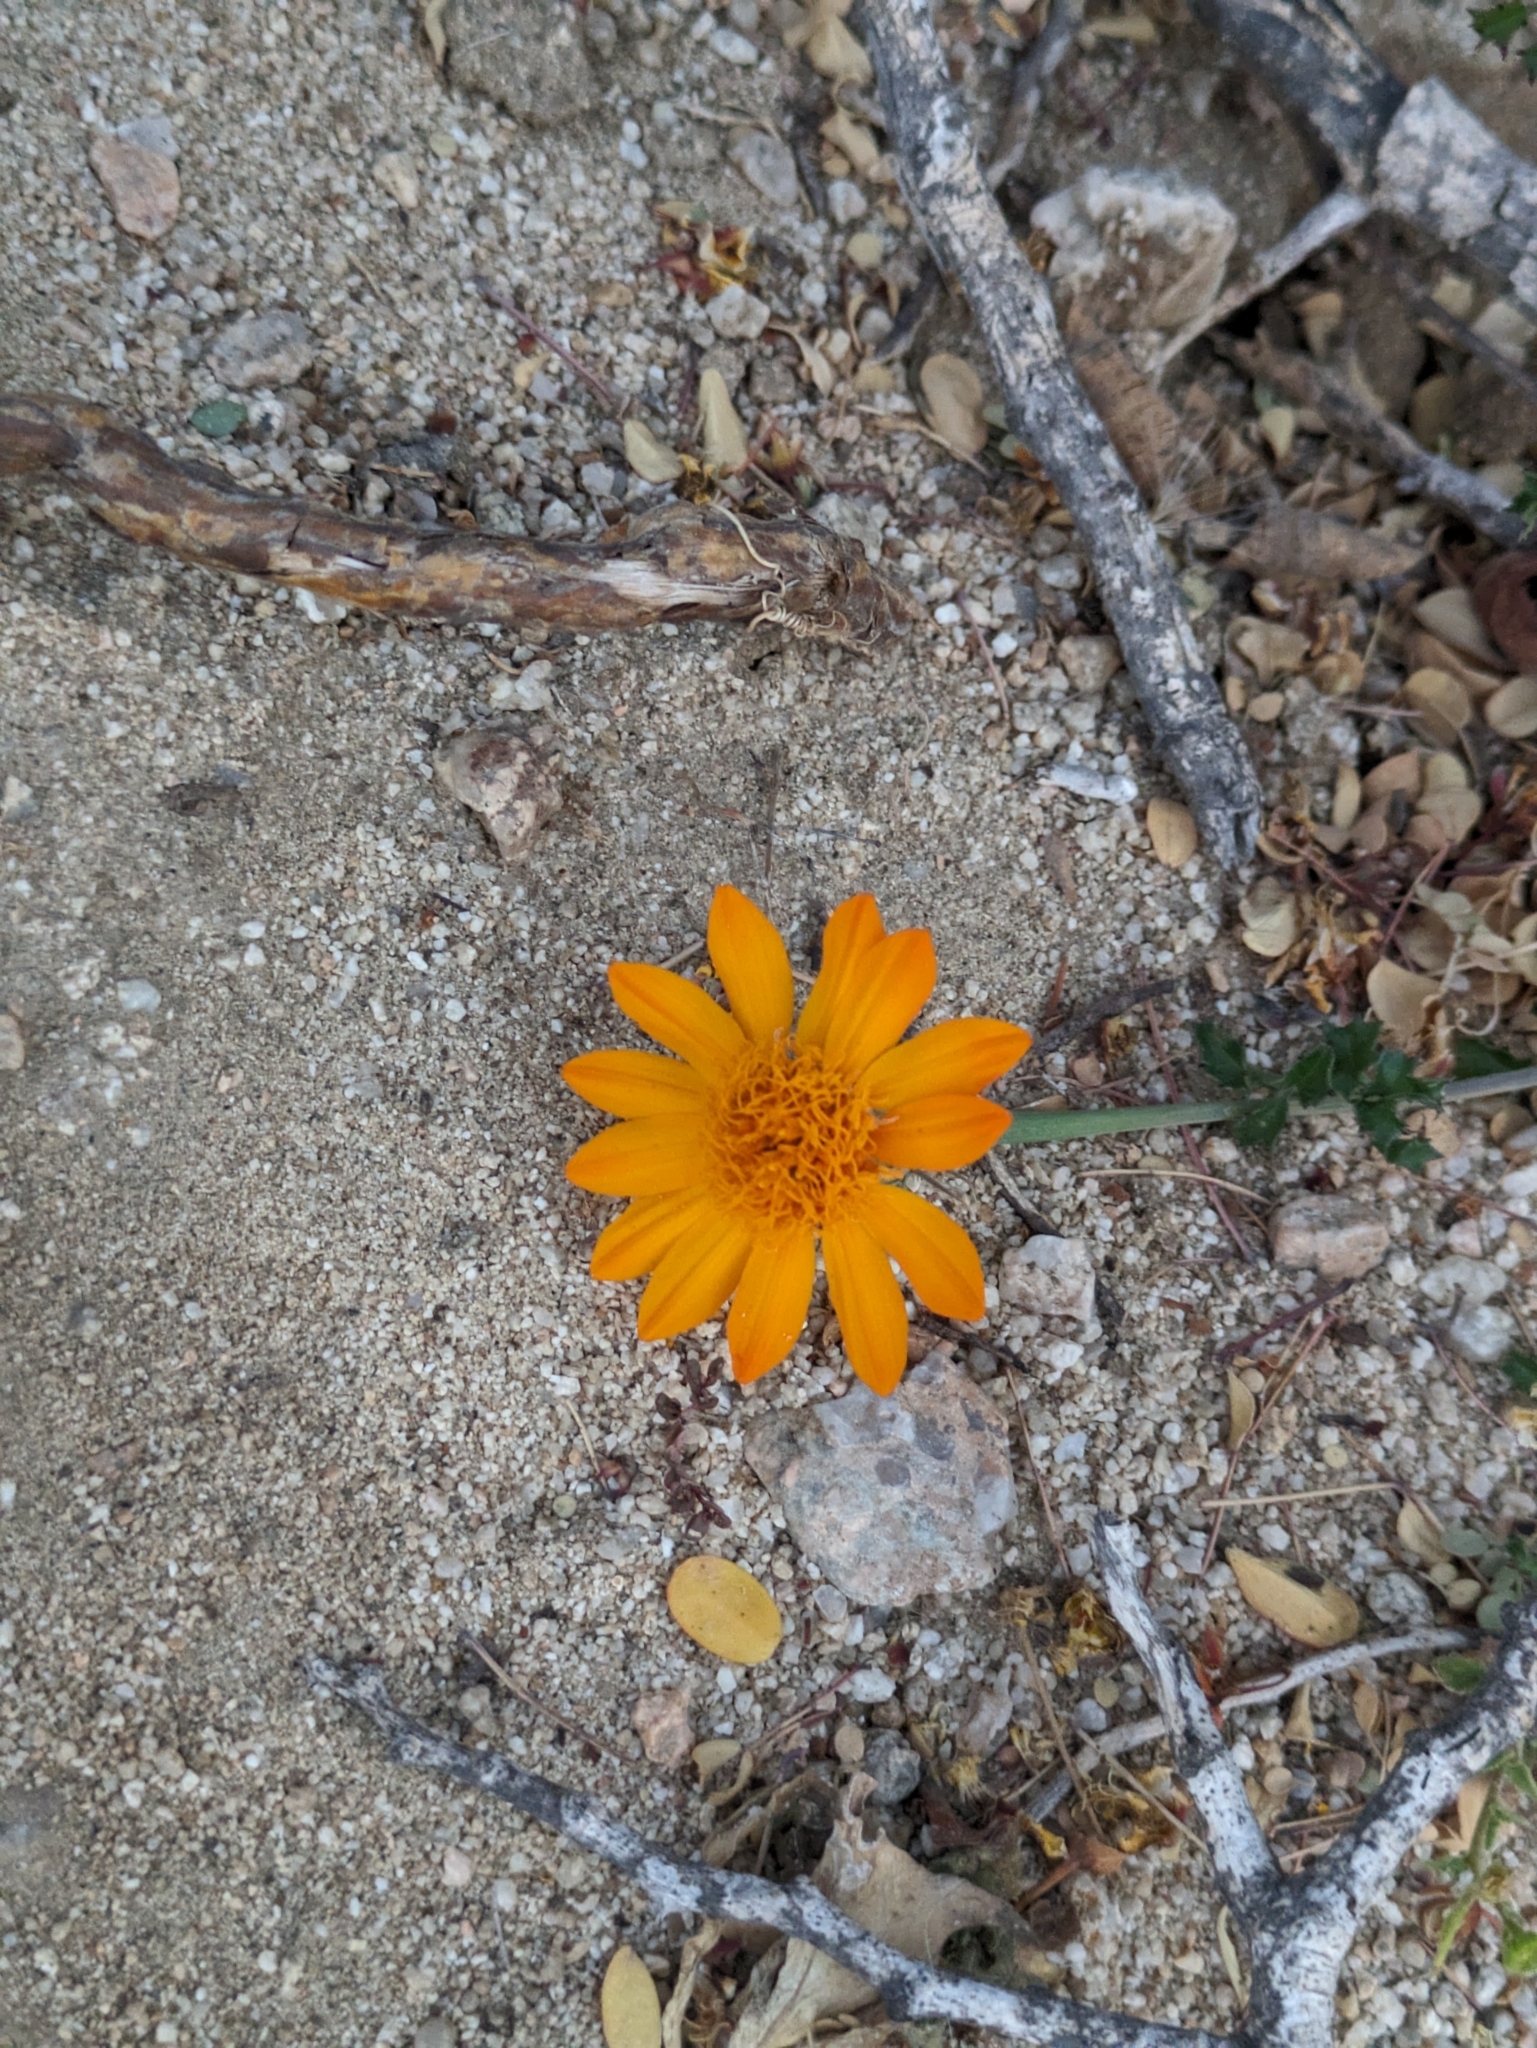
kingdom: Plantae
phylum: Tracheophyta
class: Magnoliopsida
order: Asterales
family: Asteraceae
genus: Adenophyllum
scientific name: Adenophyllum speciosum
